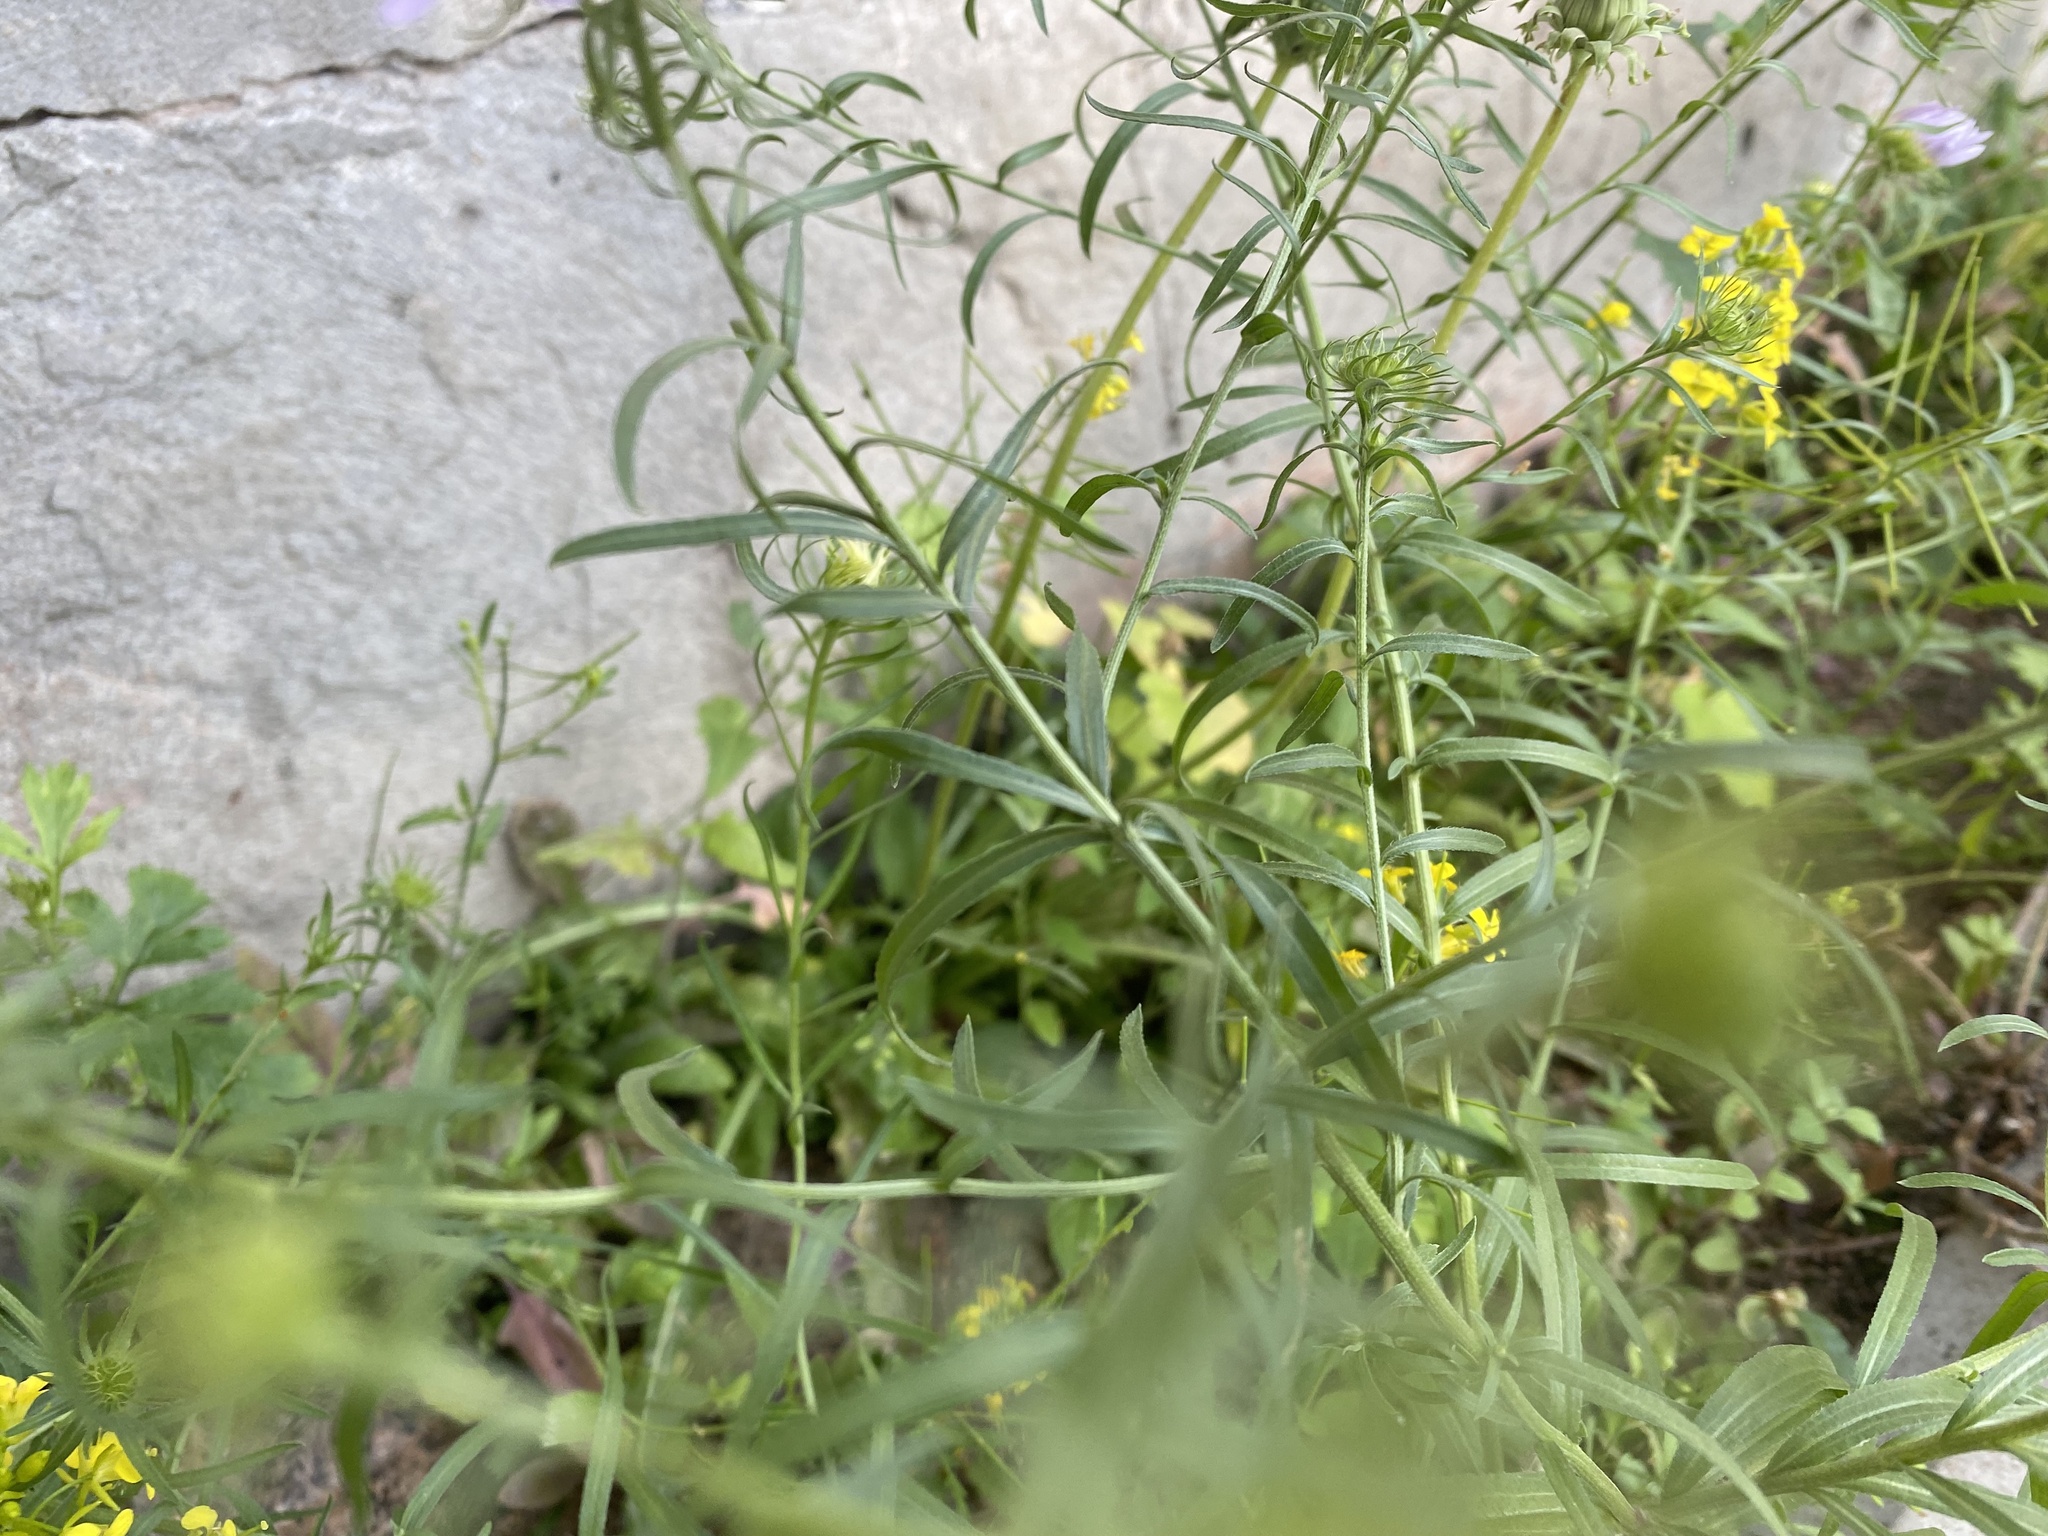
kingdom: Plantae
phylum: Tracheophyta
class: Magnoliopsida
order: Asterales
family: Asteraceae
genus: Aster
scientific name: Aster biennis
